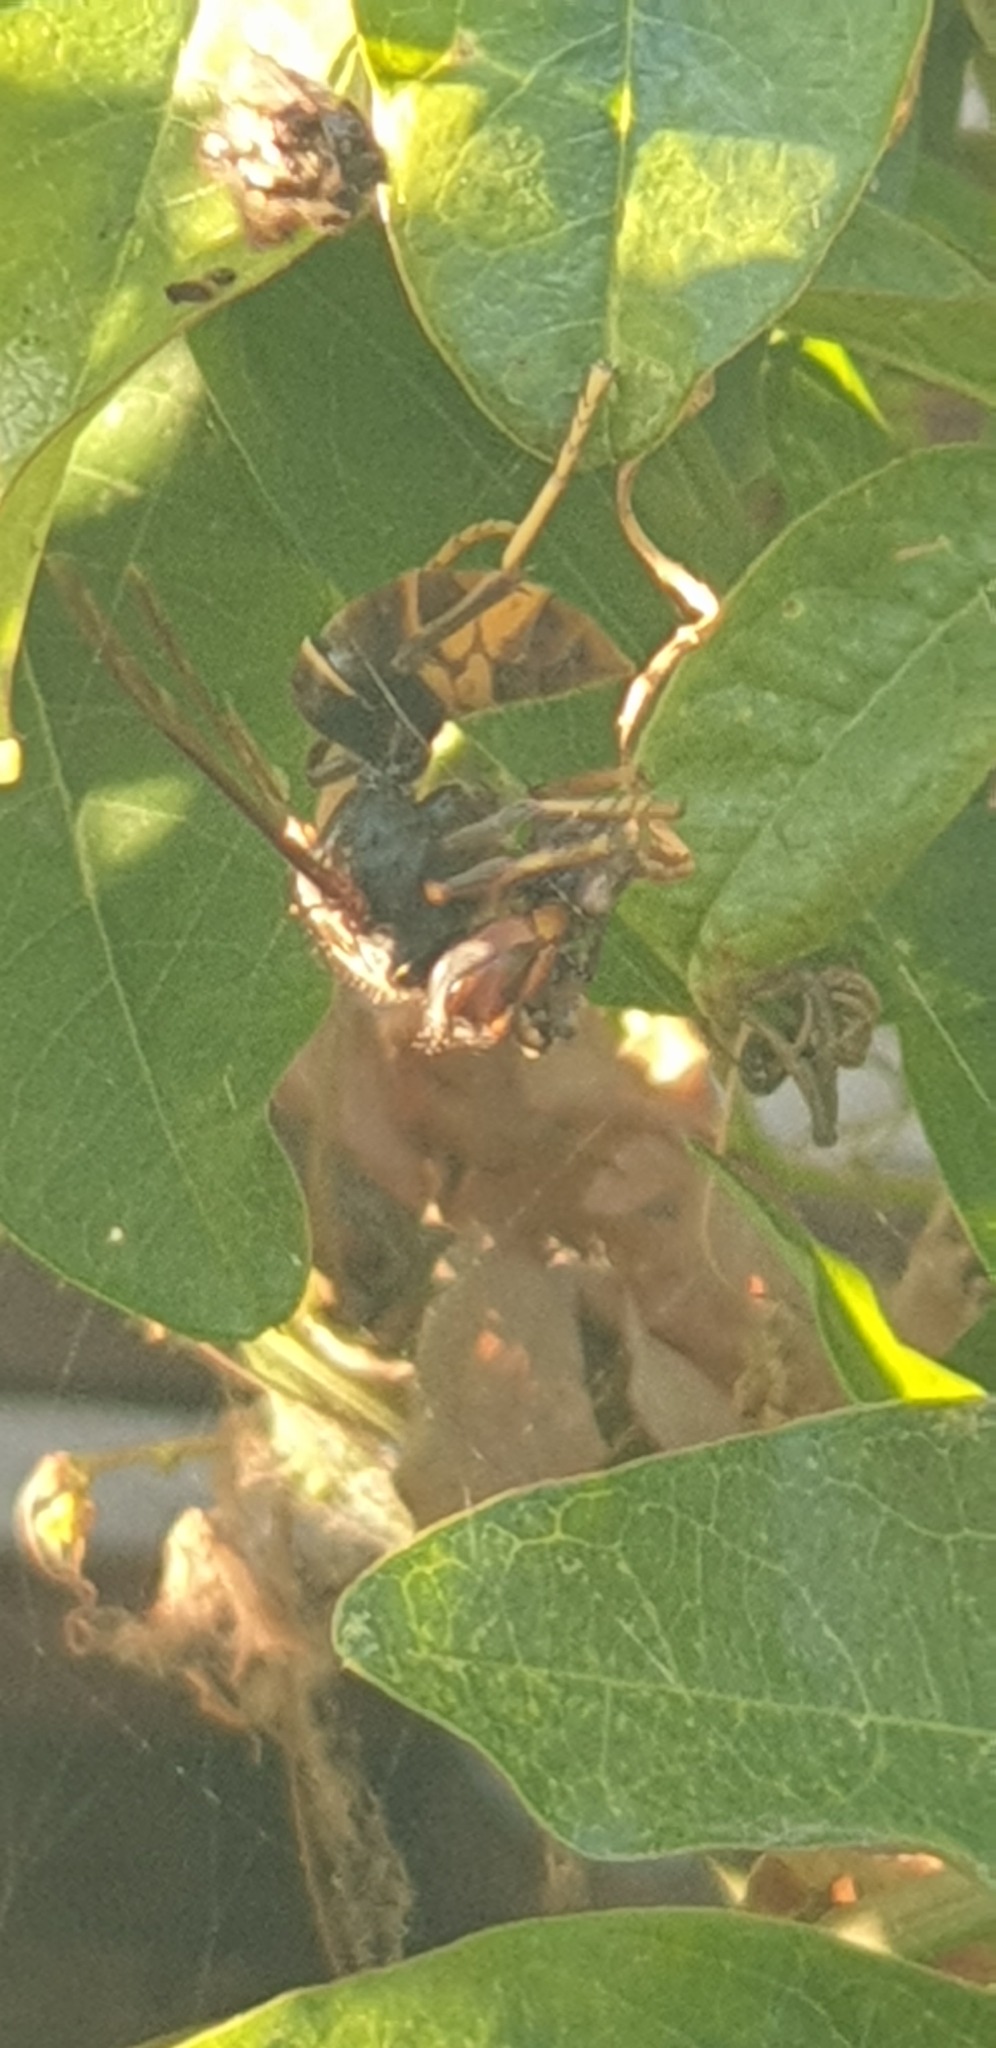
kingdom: Animalia
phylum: Arthropoda
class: Insecta
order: Hymenoptera
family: Vespidae
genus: Vespa
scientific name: Vespa velutina
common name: Asian hornet
